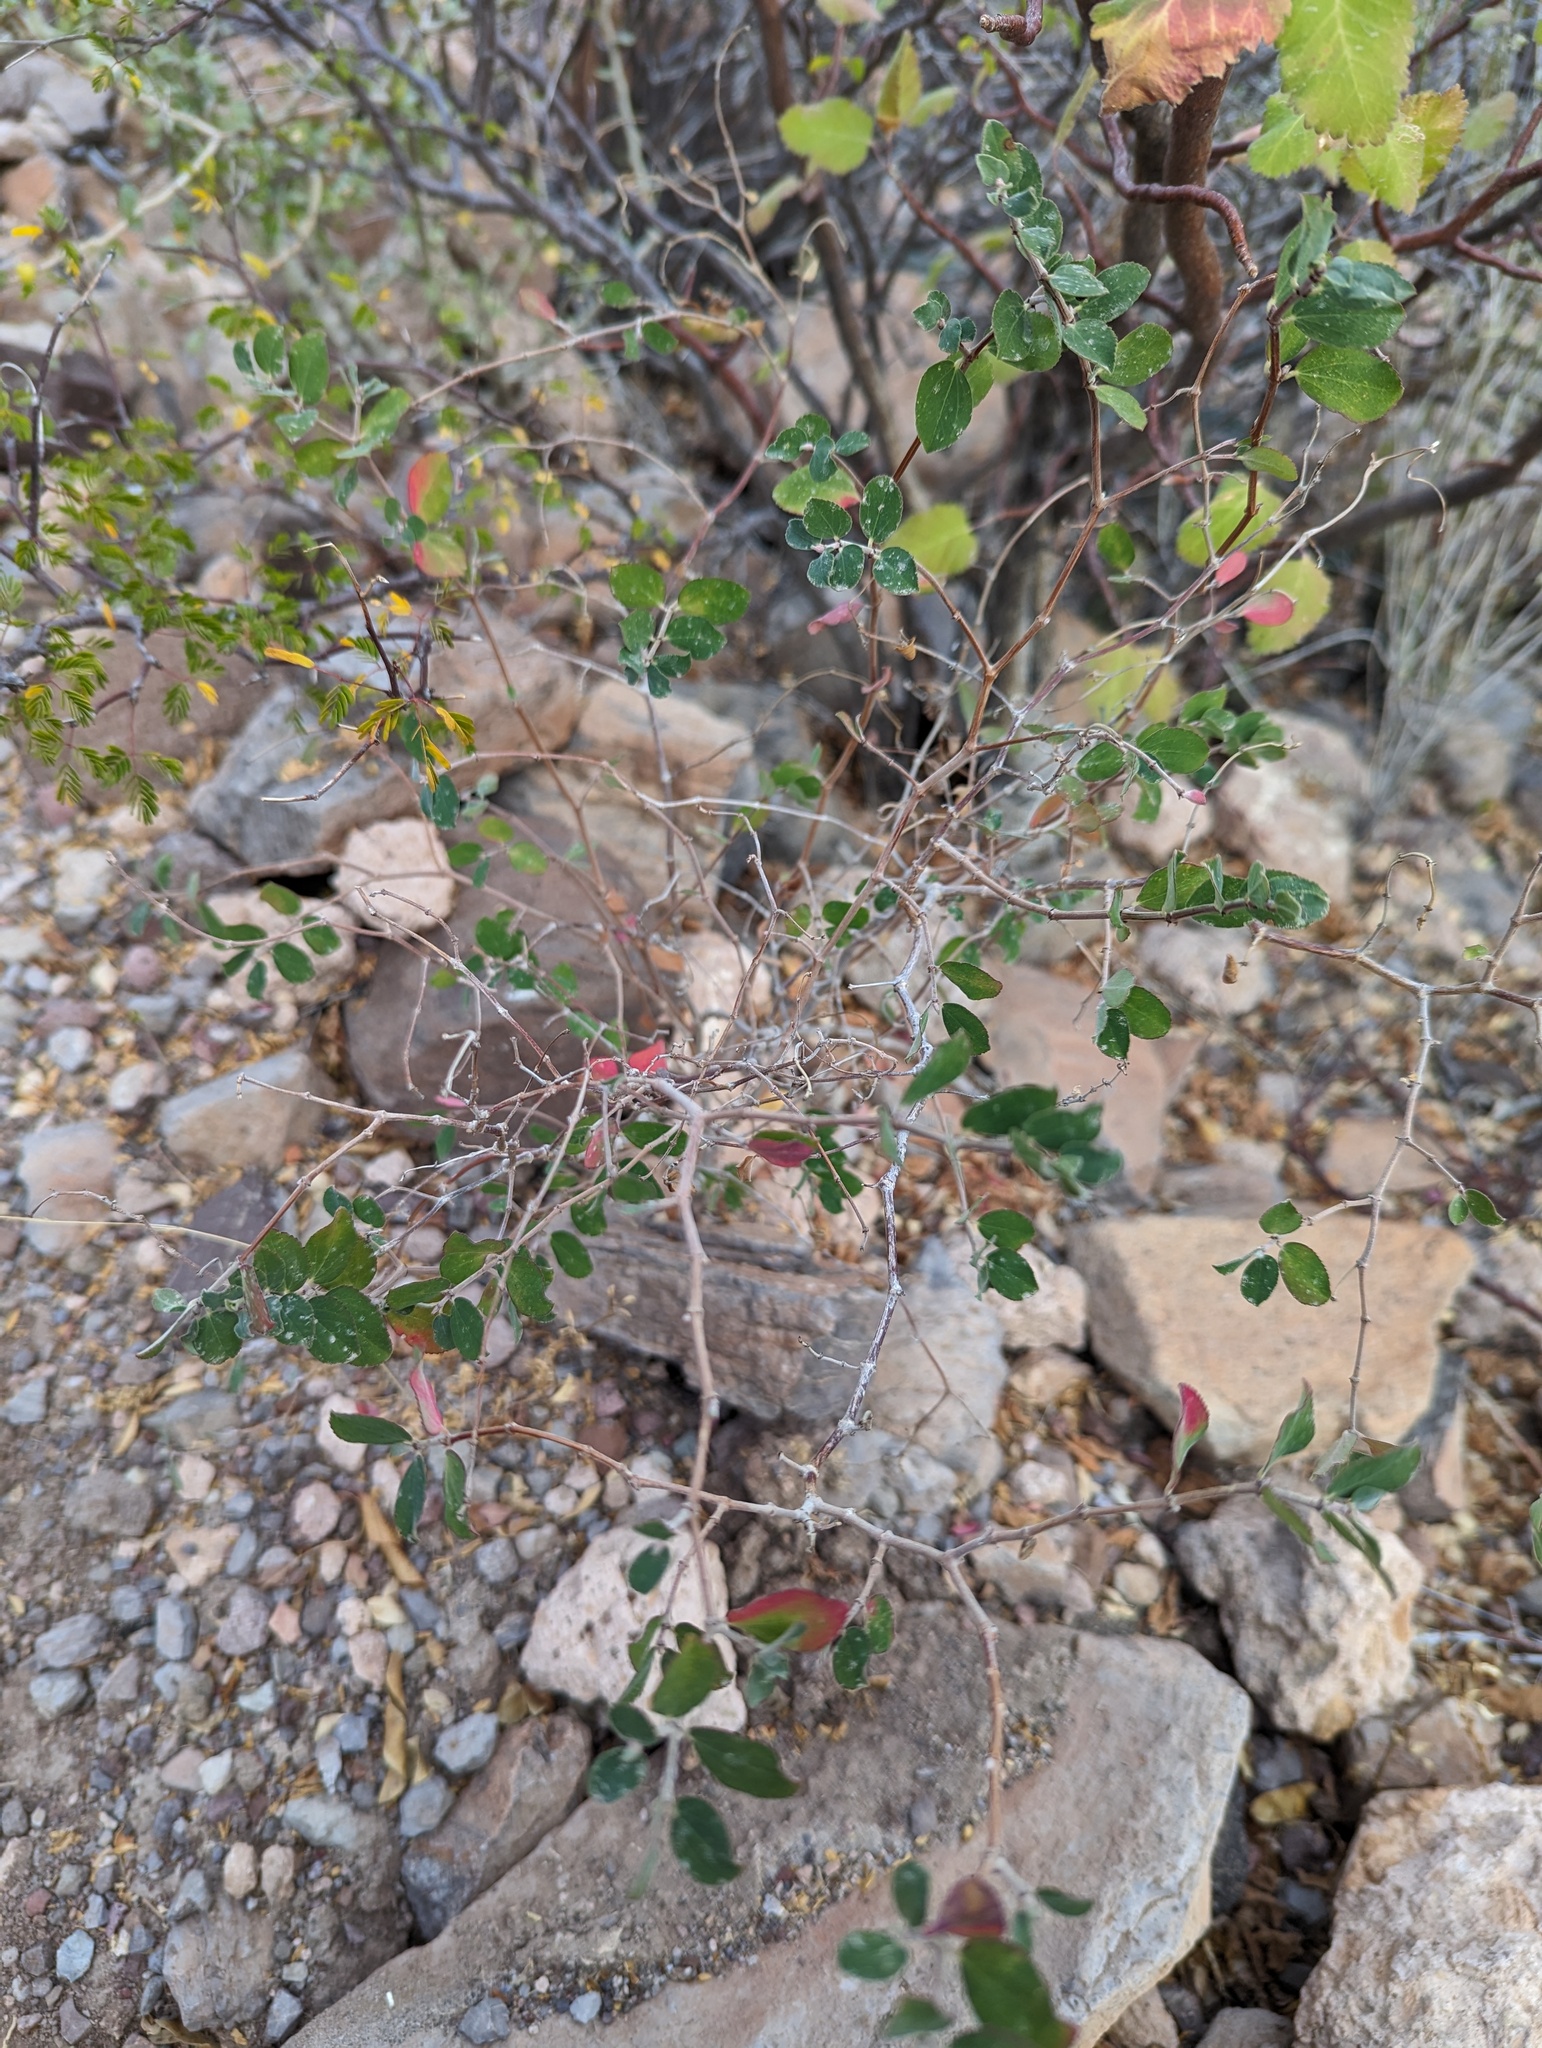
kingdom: Plantae
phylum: Tracheophyta
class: Magnoliopsida
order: Malpighiales
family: Euphorbiaceae
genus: Euphorbia
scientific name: Euphorbia tomentulosa
